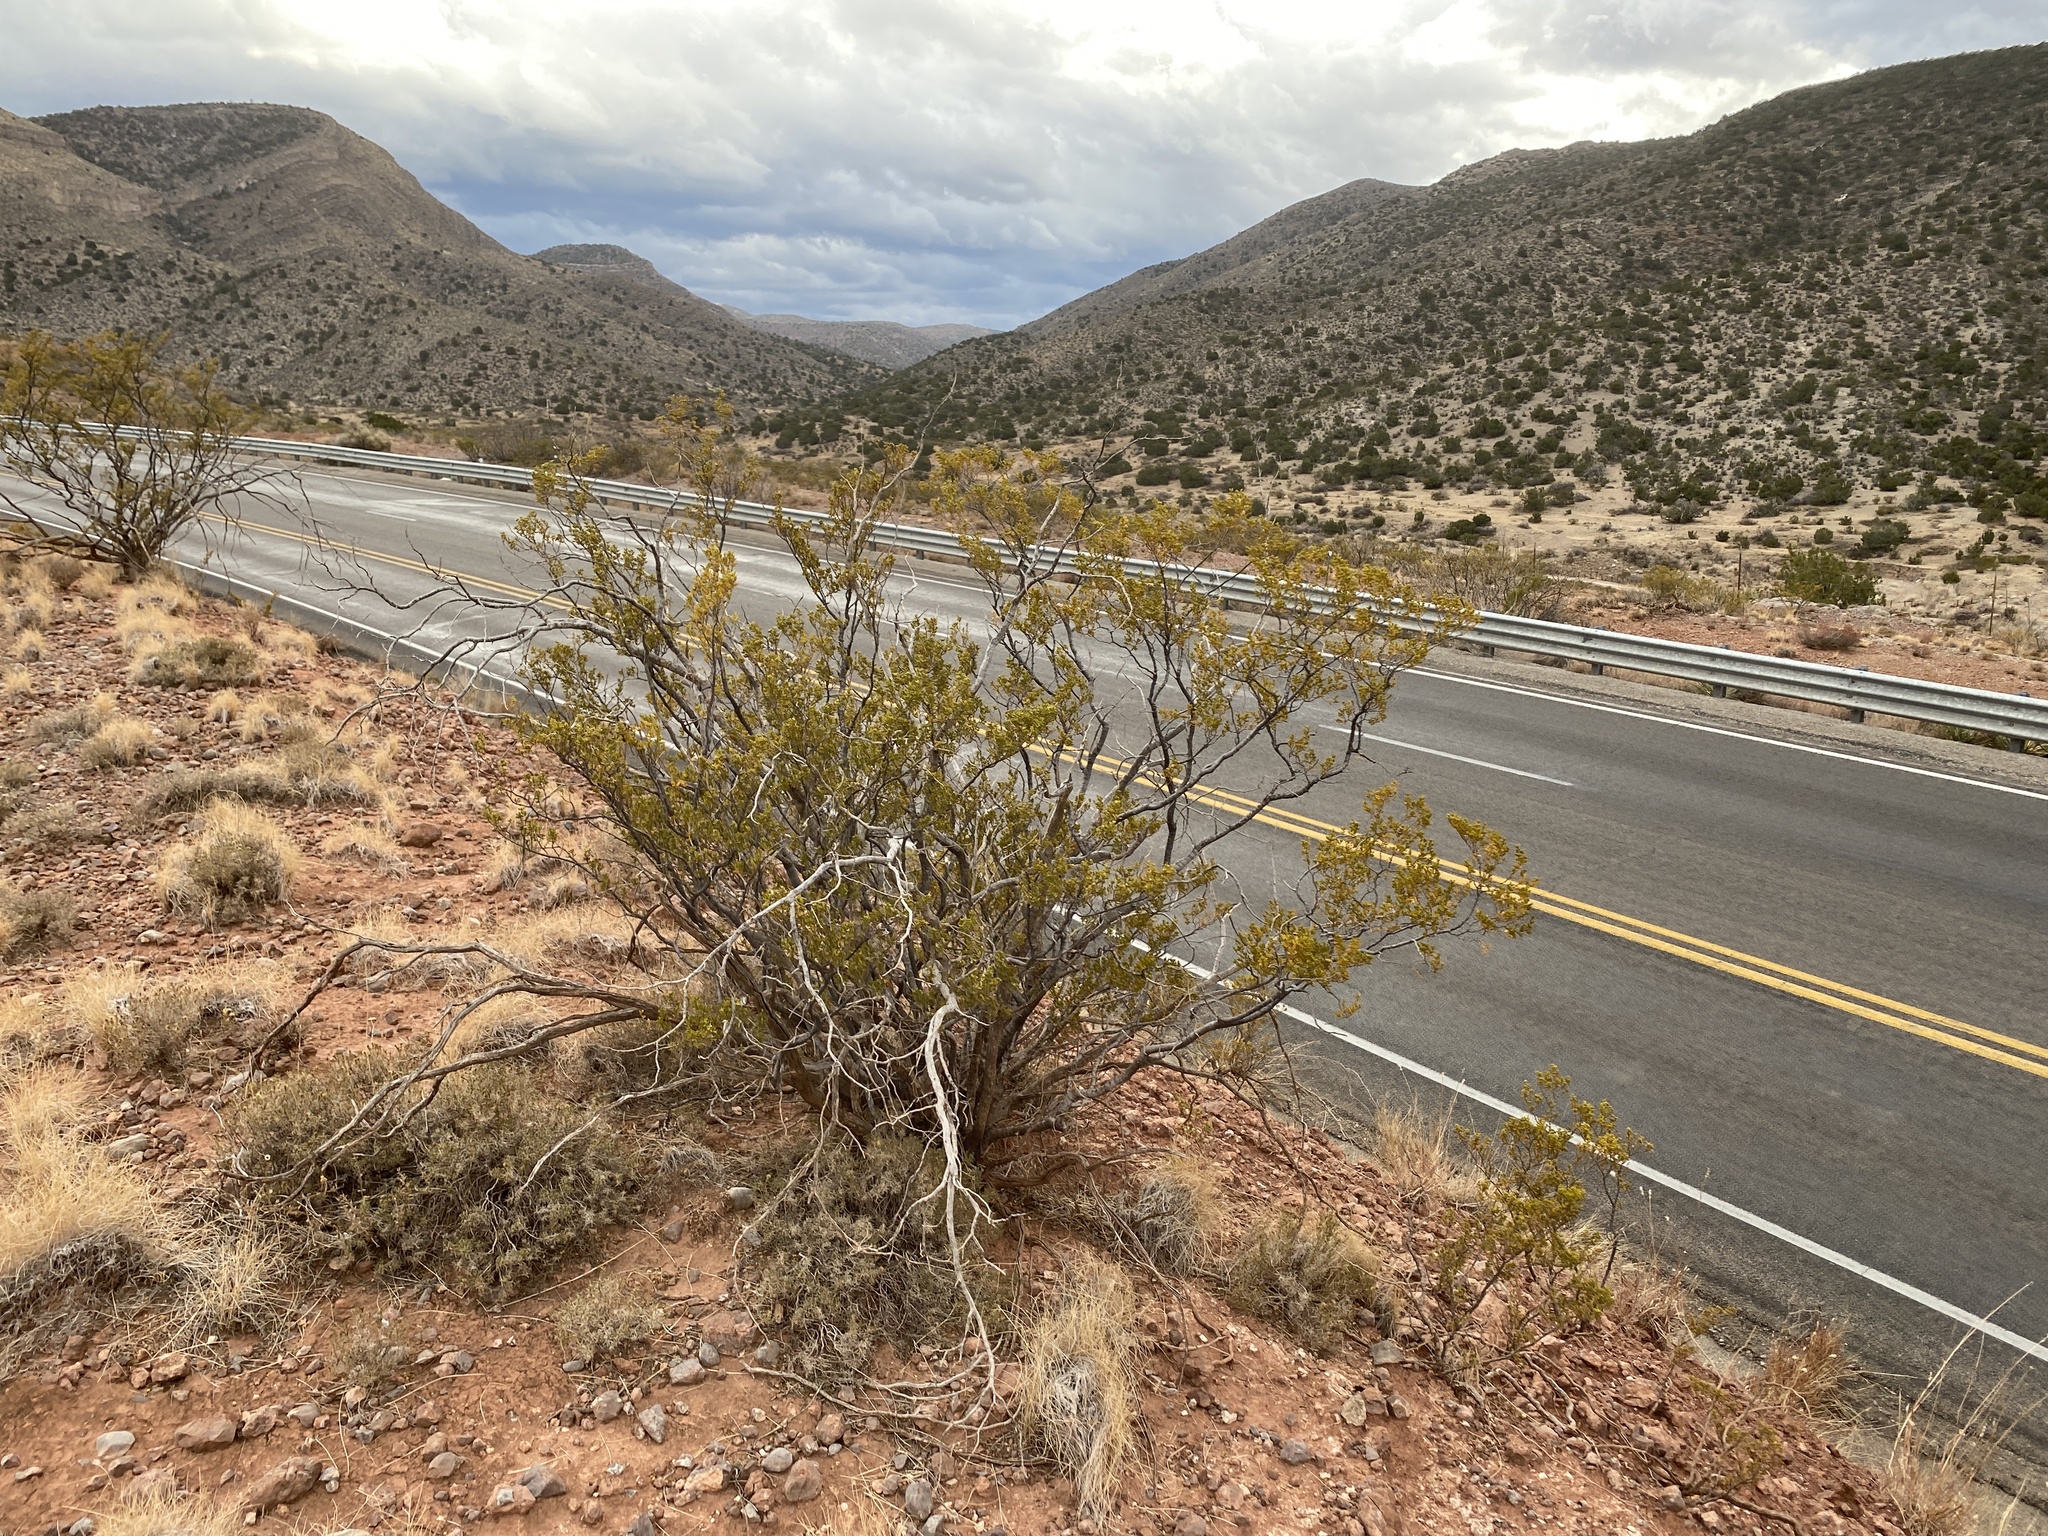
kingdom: Plantae
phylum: Tracheophyta
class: Magnoliopsida
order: Zygophyllales
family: Zygophyllaceae
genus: Larrea
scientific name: Larrea tridentata
